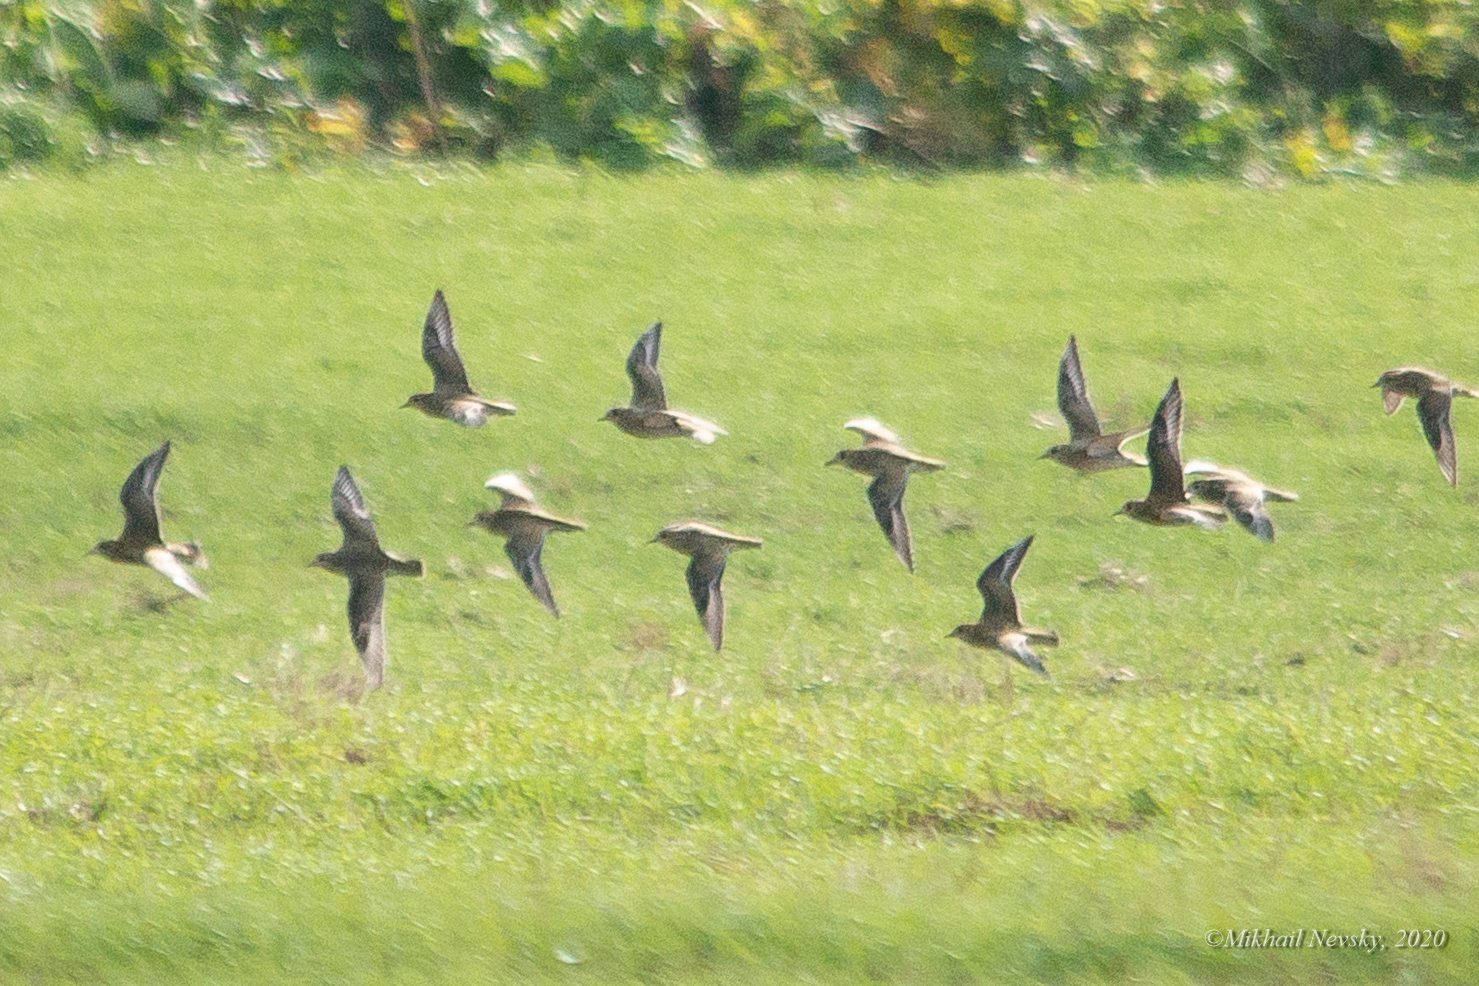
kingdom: Animalia
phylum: Chordata
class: Aves
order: Charadriiformes
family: Charadriidae
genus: Pluvialis
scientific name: Pluvialis apricaria
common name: European golden plover
